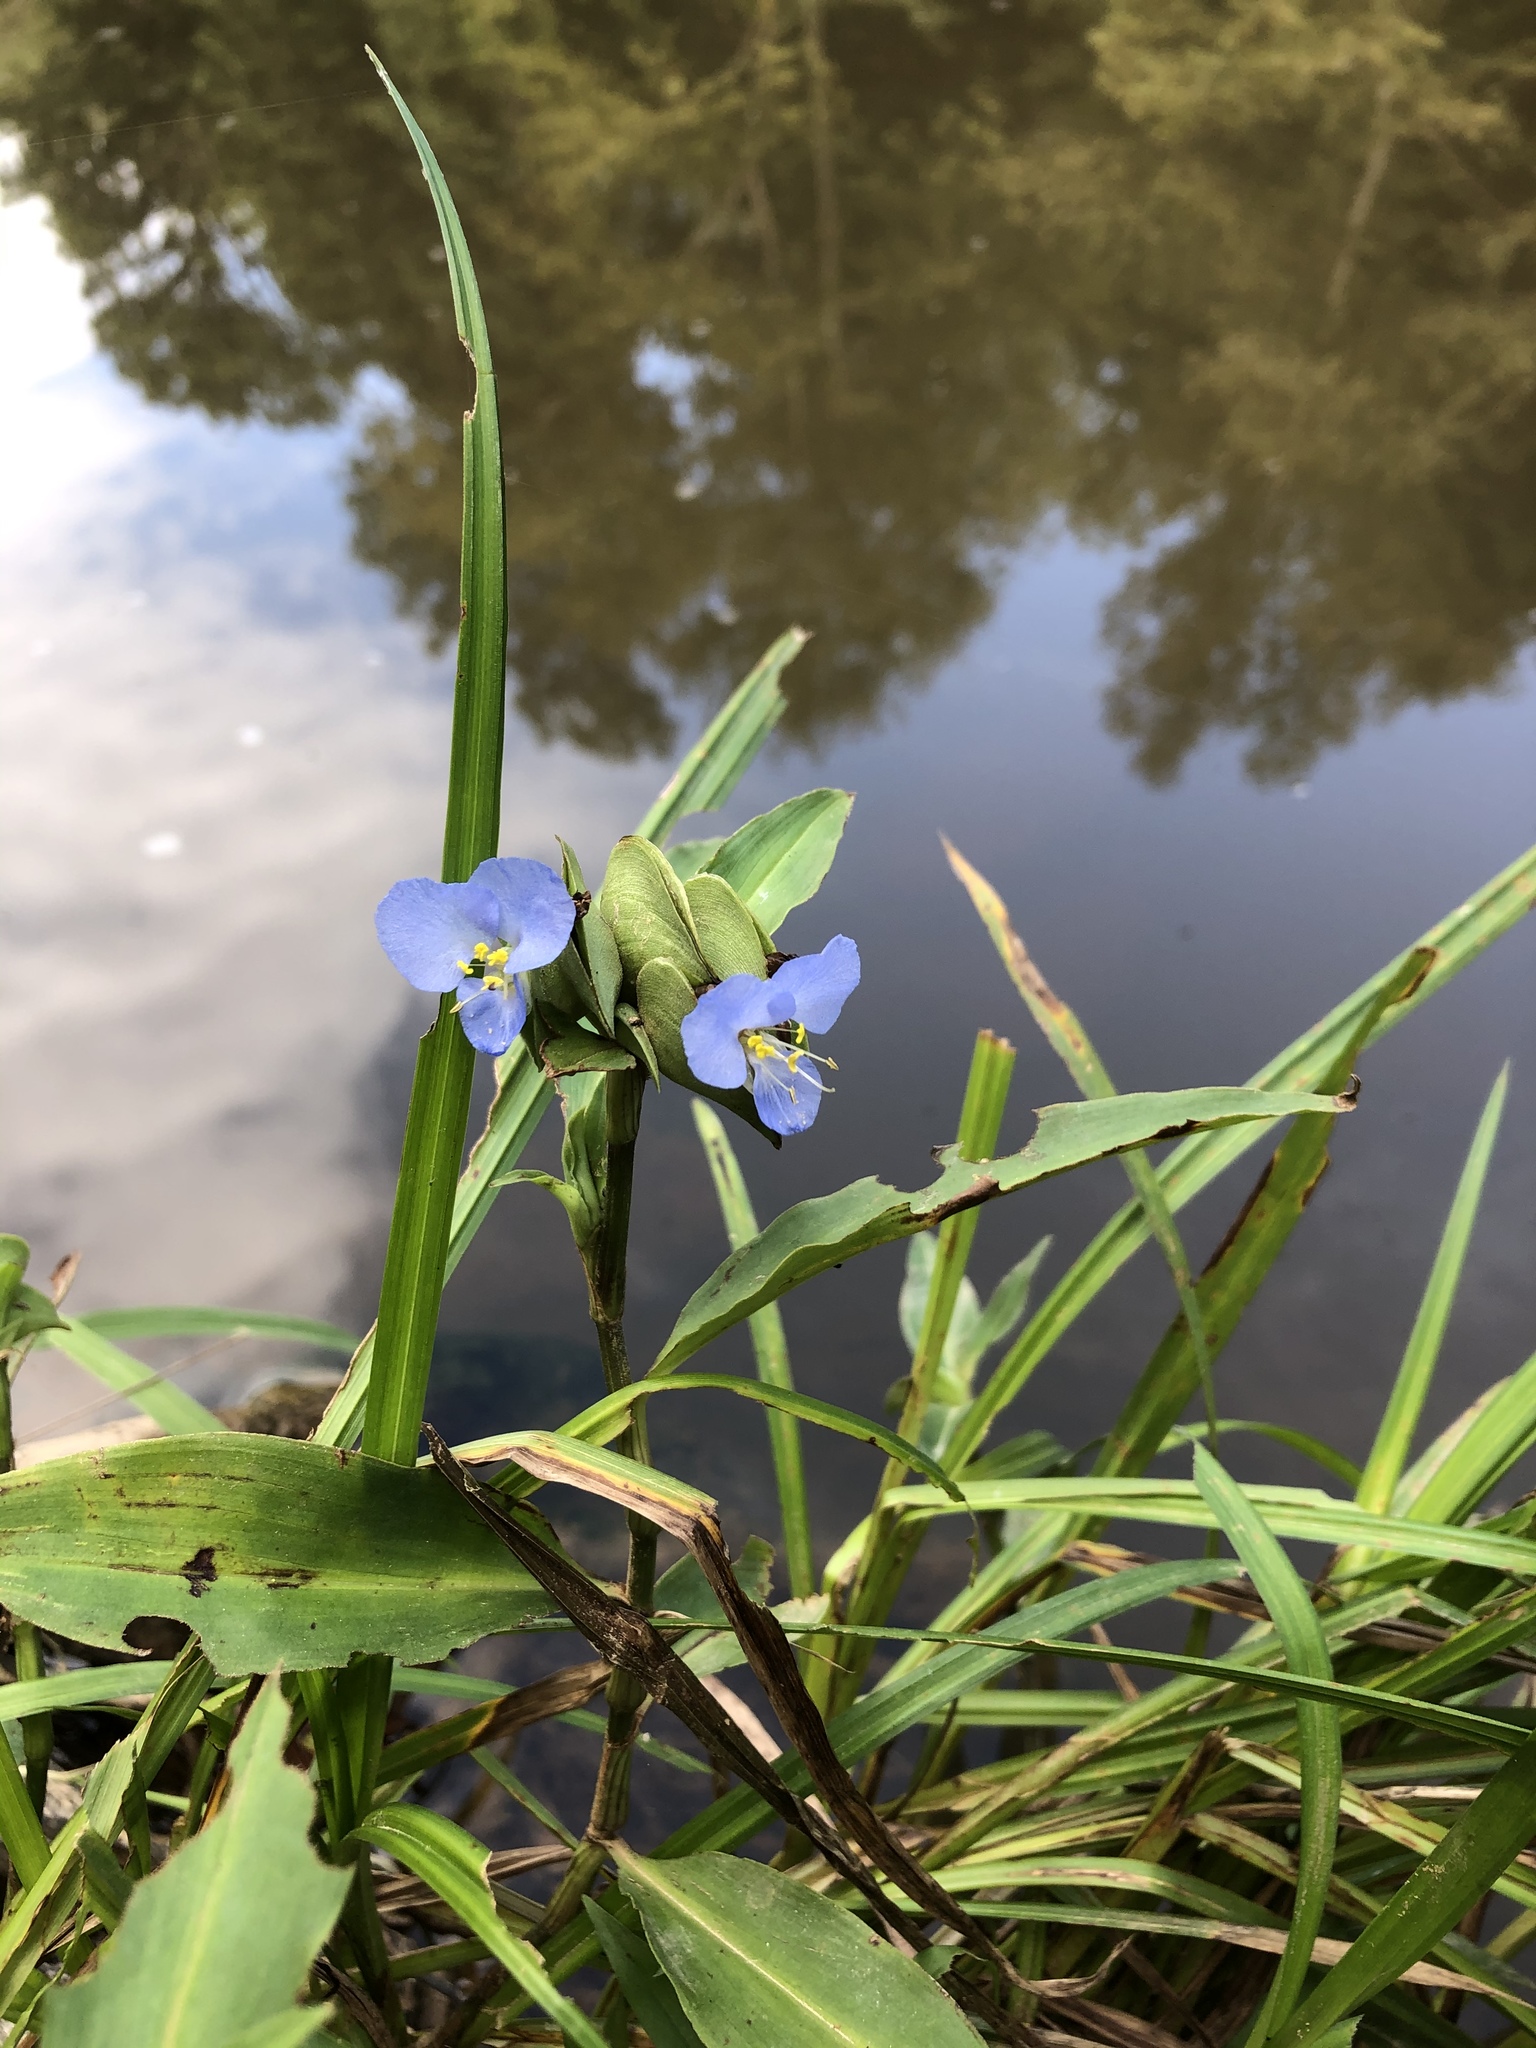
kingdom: Plantae
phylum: Tracheophyta
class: Liliopsida
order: Commelinales
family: Commelinaceae
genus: Commelina
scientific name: Commelina virginica
